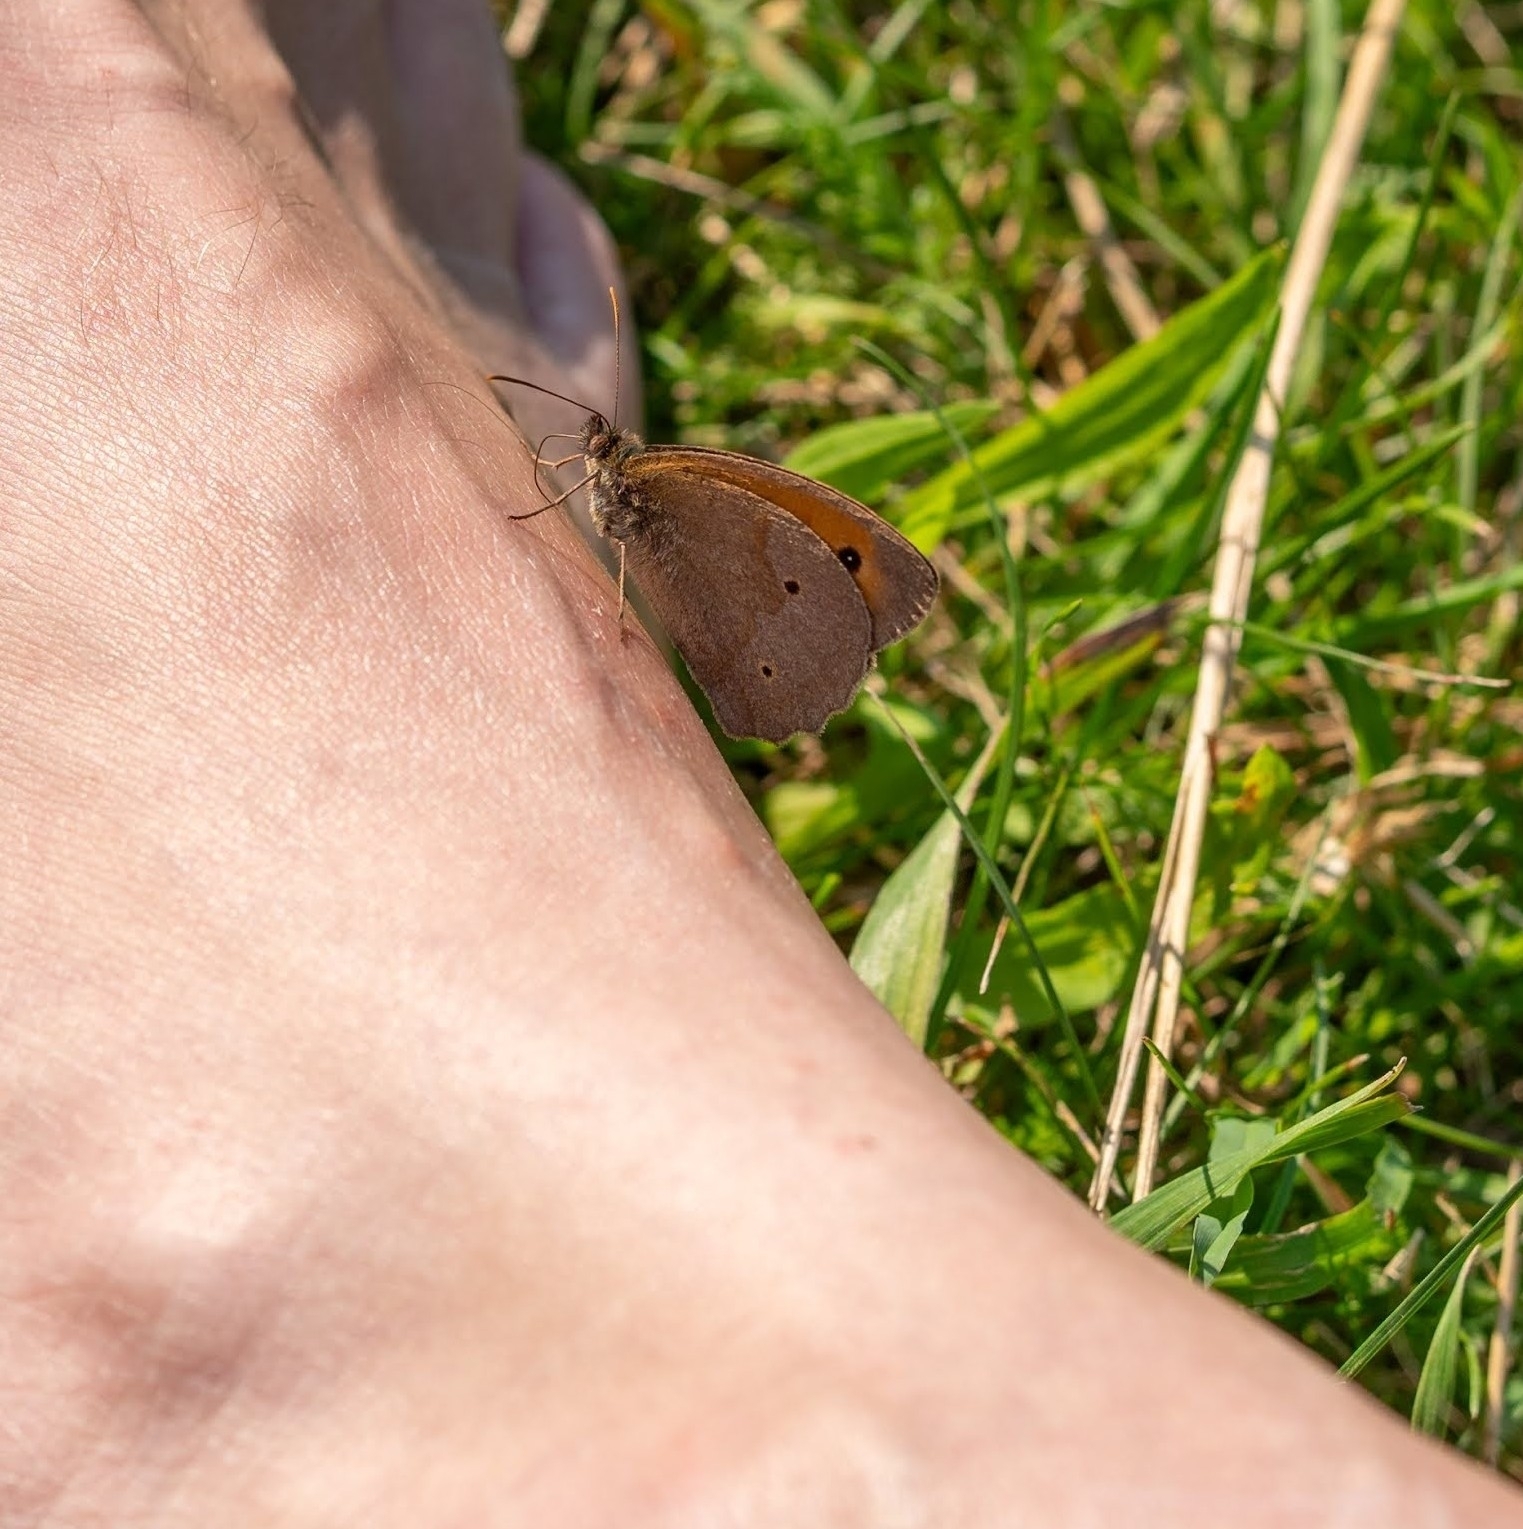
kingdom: Animalia
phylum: Arthropoda
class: Insecta
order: Lepidoptera
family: Nymphalidae
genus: Maniola
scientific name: Maniola jurtina
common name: Meadow brown
